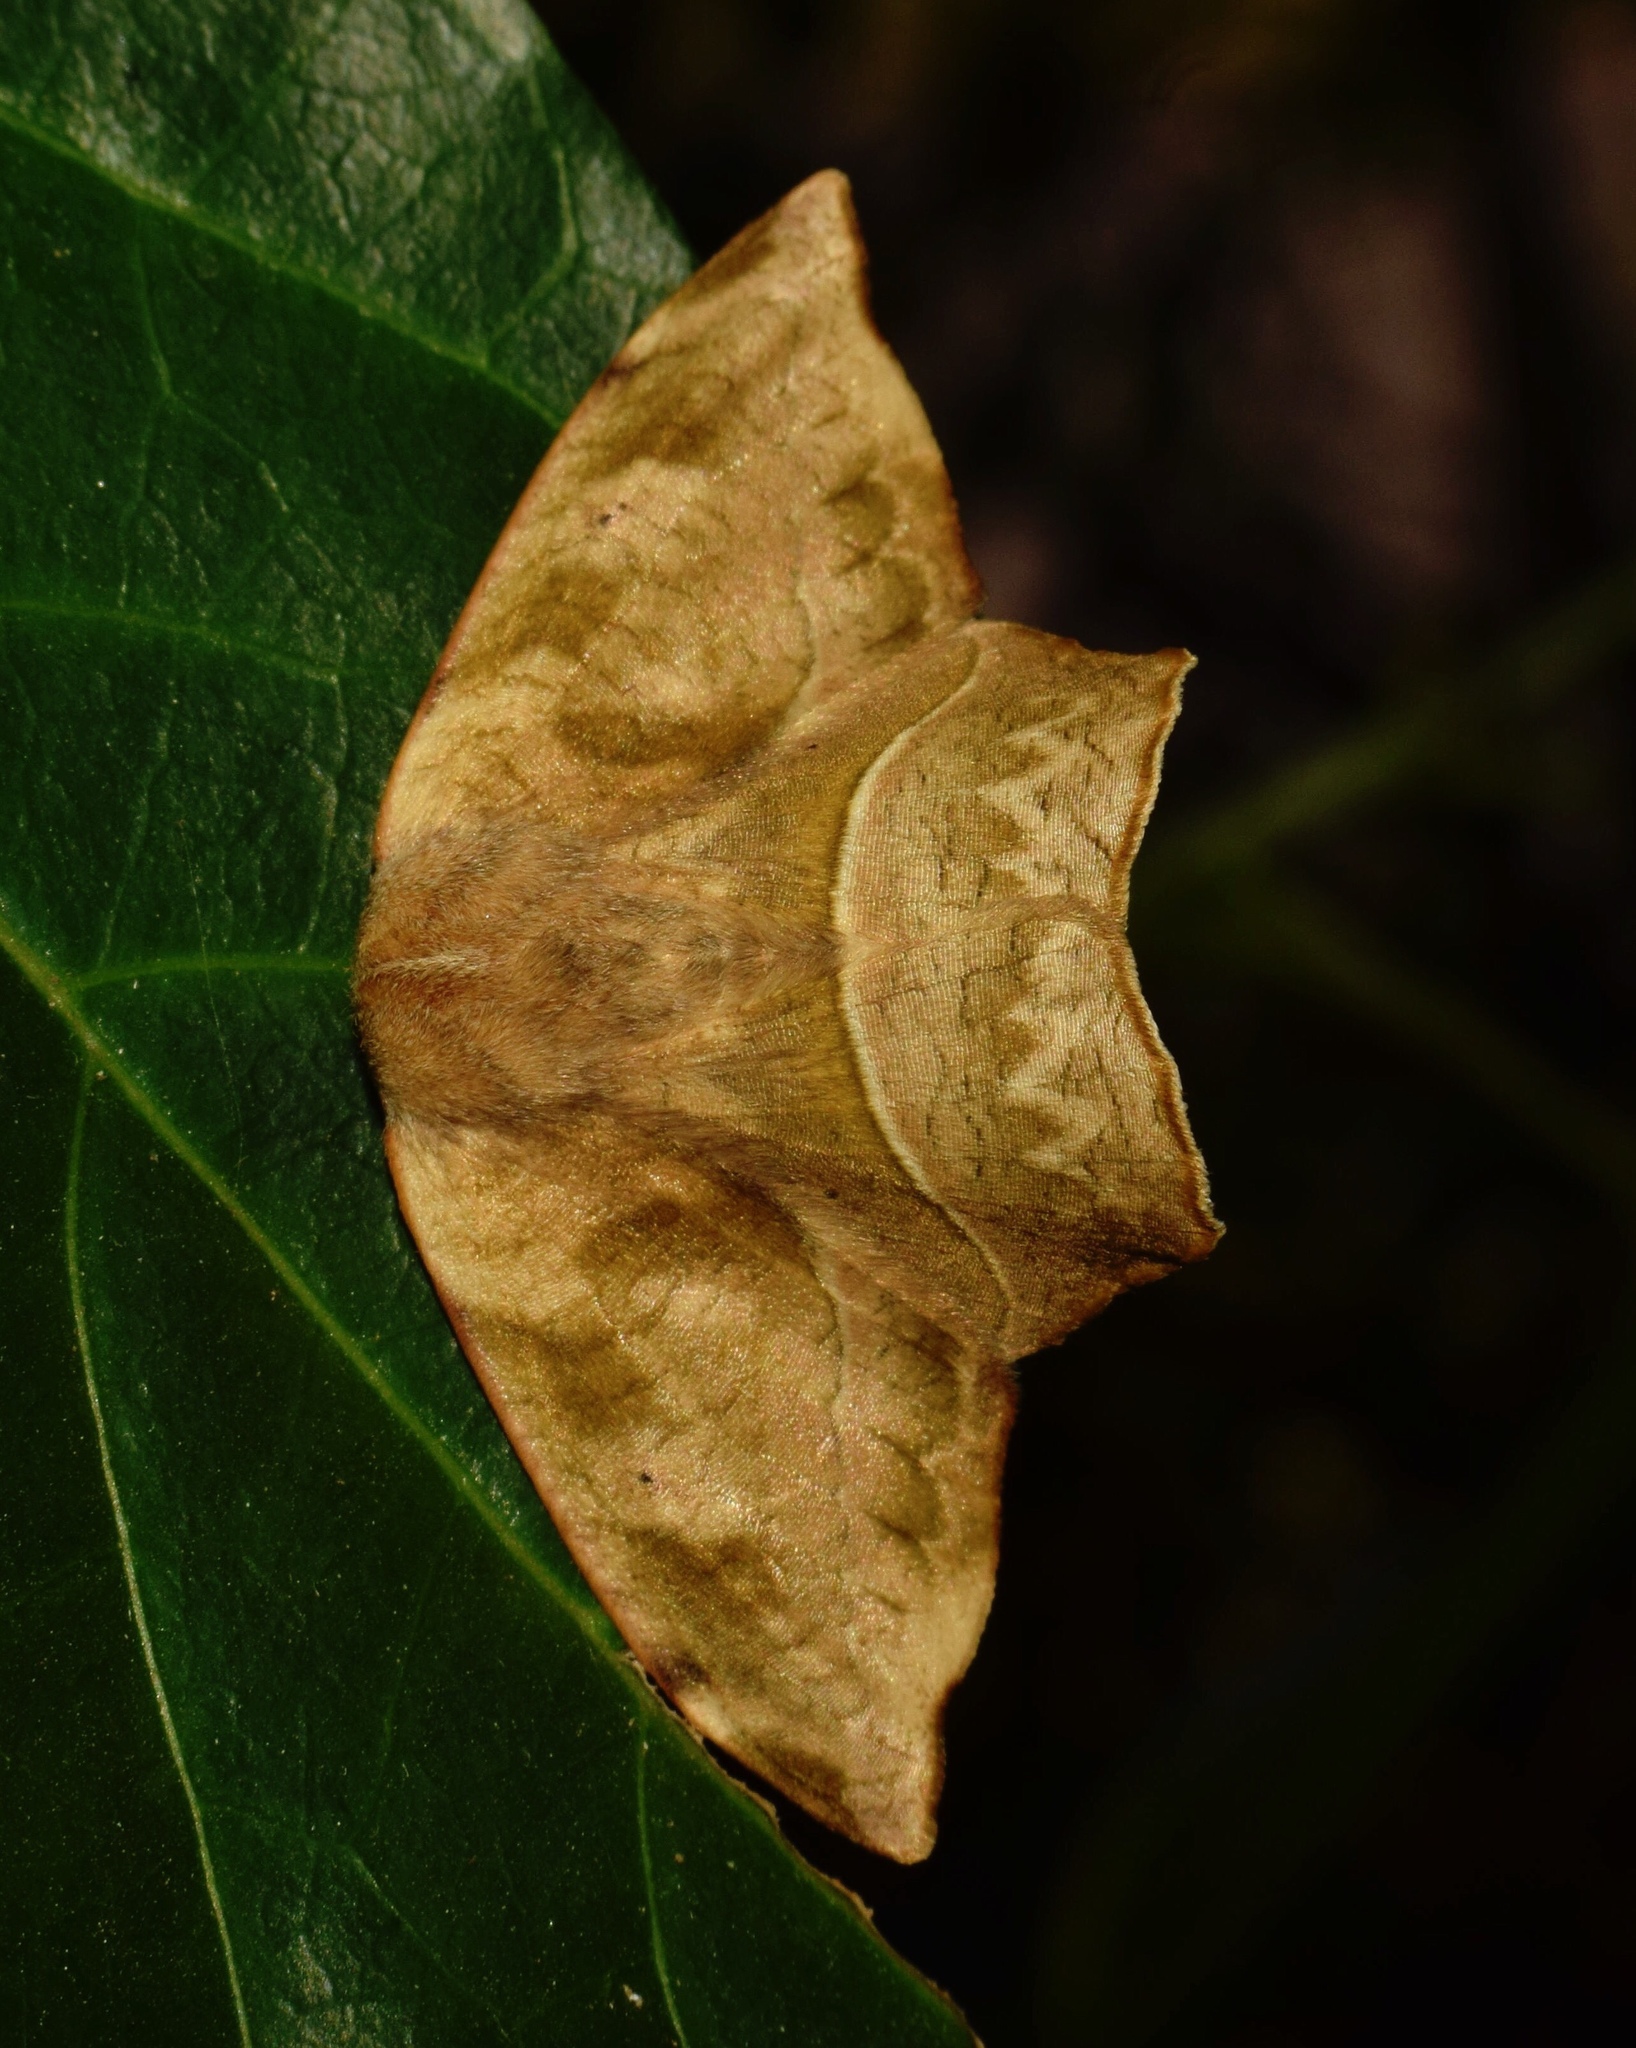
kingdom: Animalia
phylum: Arthropoda
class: Insecta
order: Lepidoptera
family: Drepanidae
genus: Negera
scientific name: Negera natalensis
